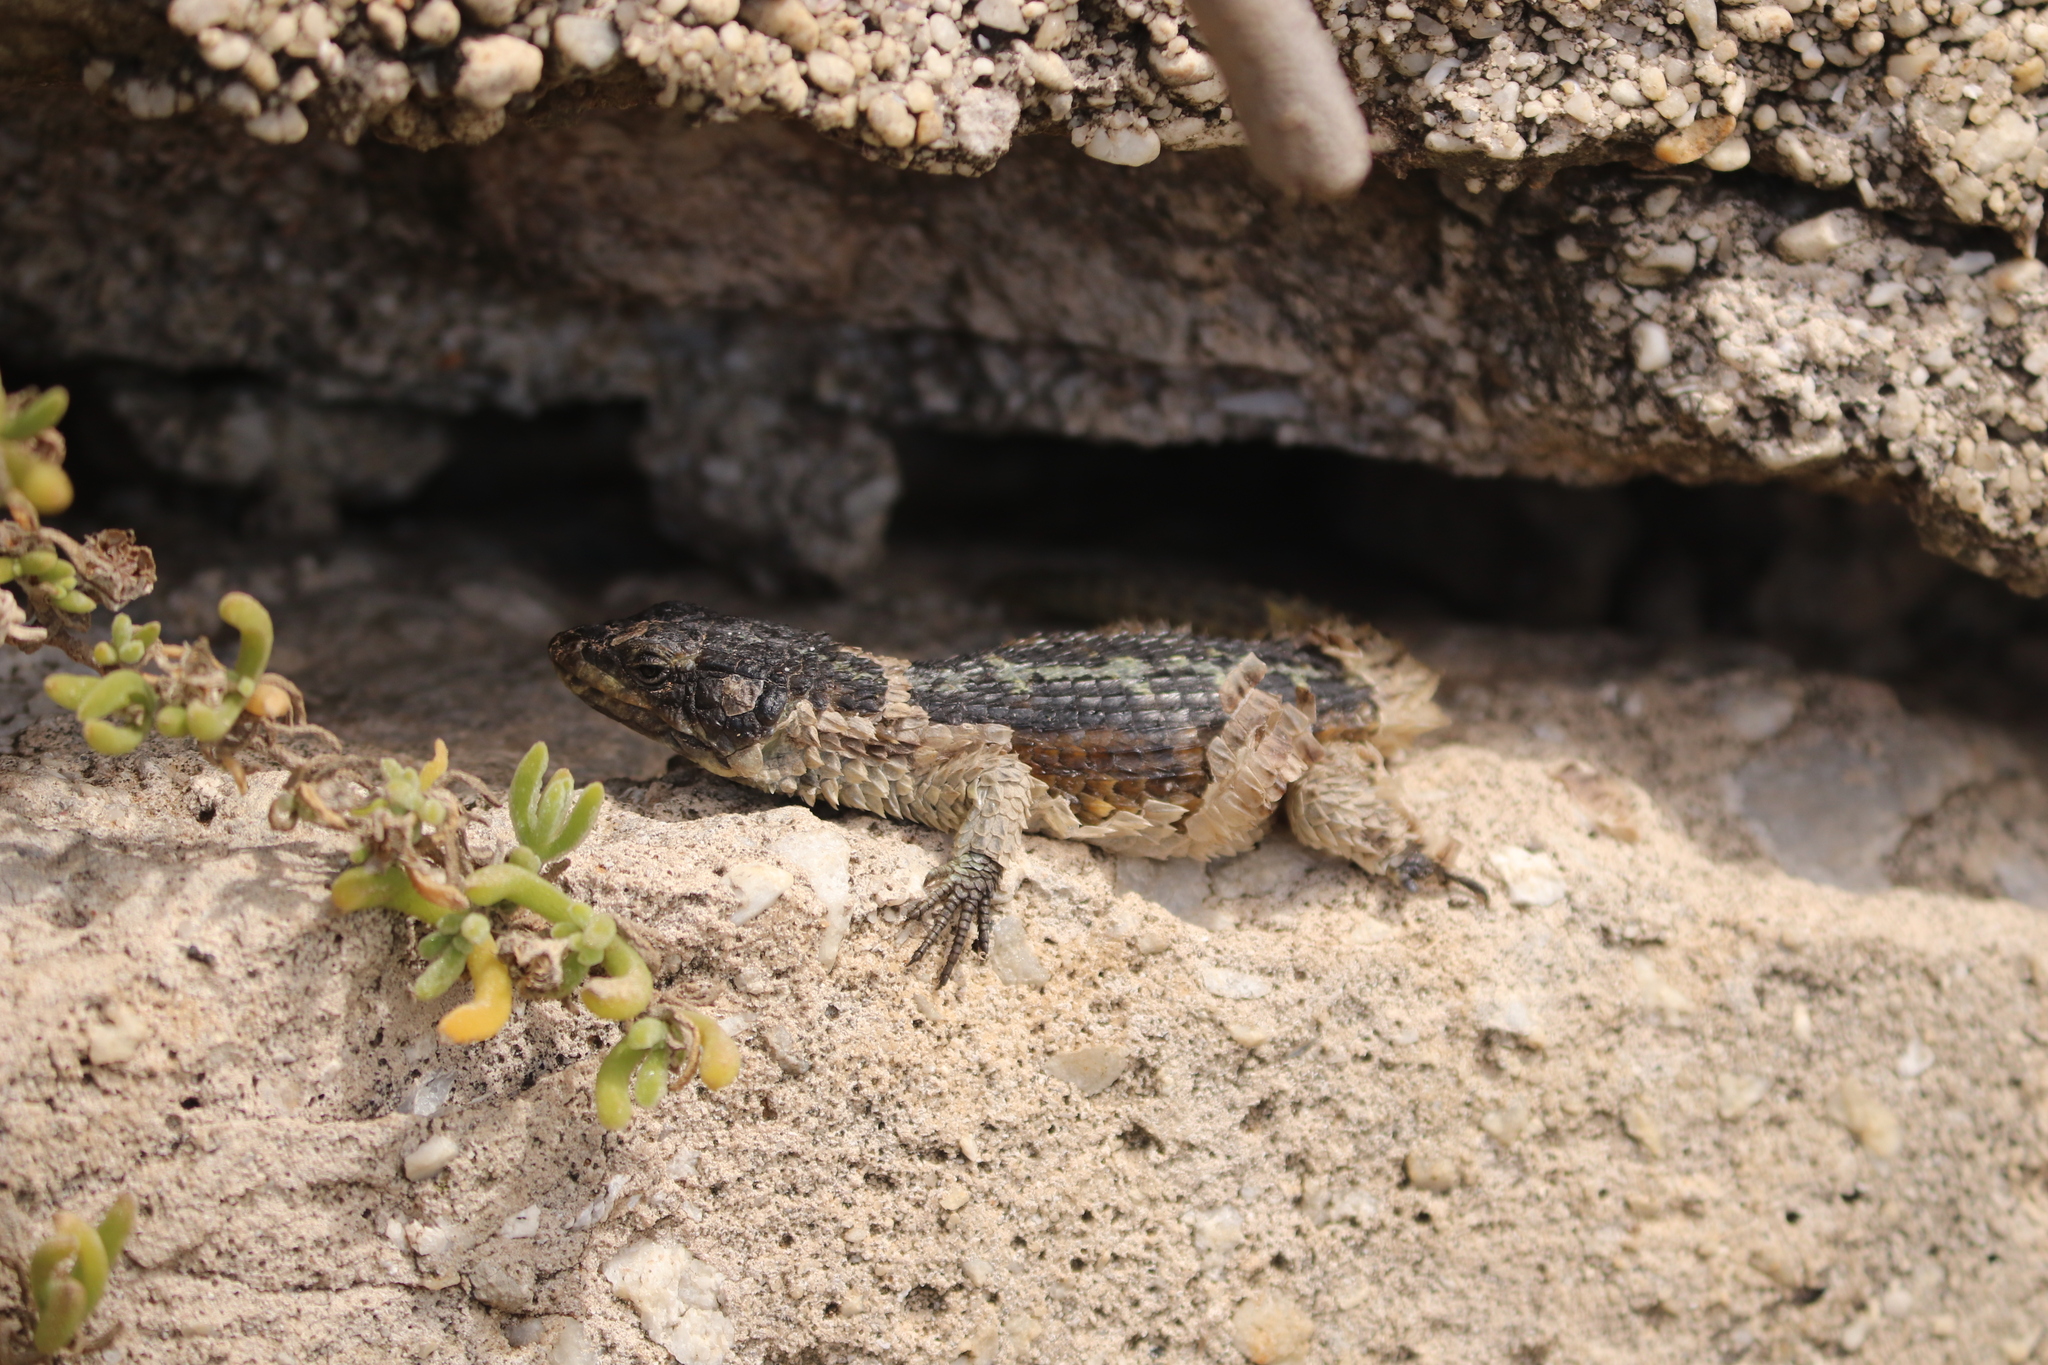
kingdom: Animalia
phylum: Chordata
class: Squamata
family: Cordylidae
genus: Cordylus
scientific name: Cordylus cordylus
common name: Cape girdled lizard
